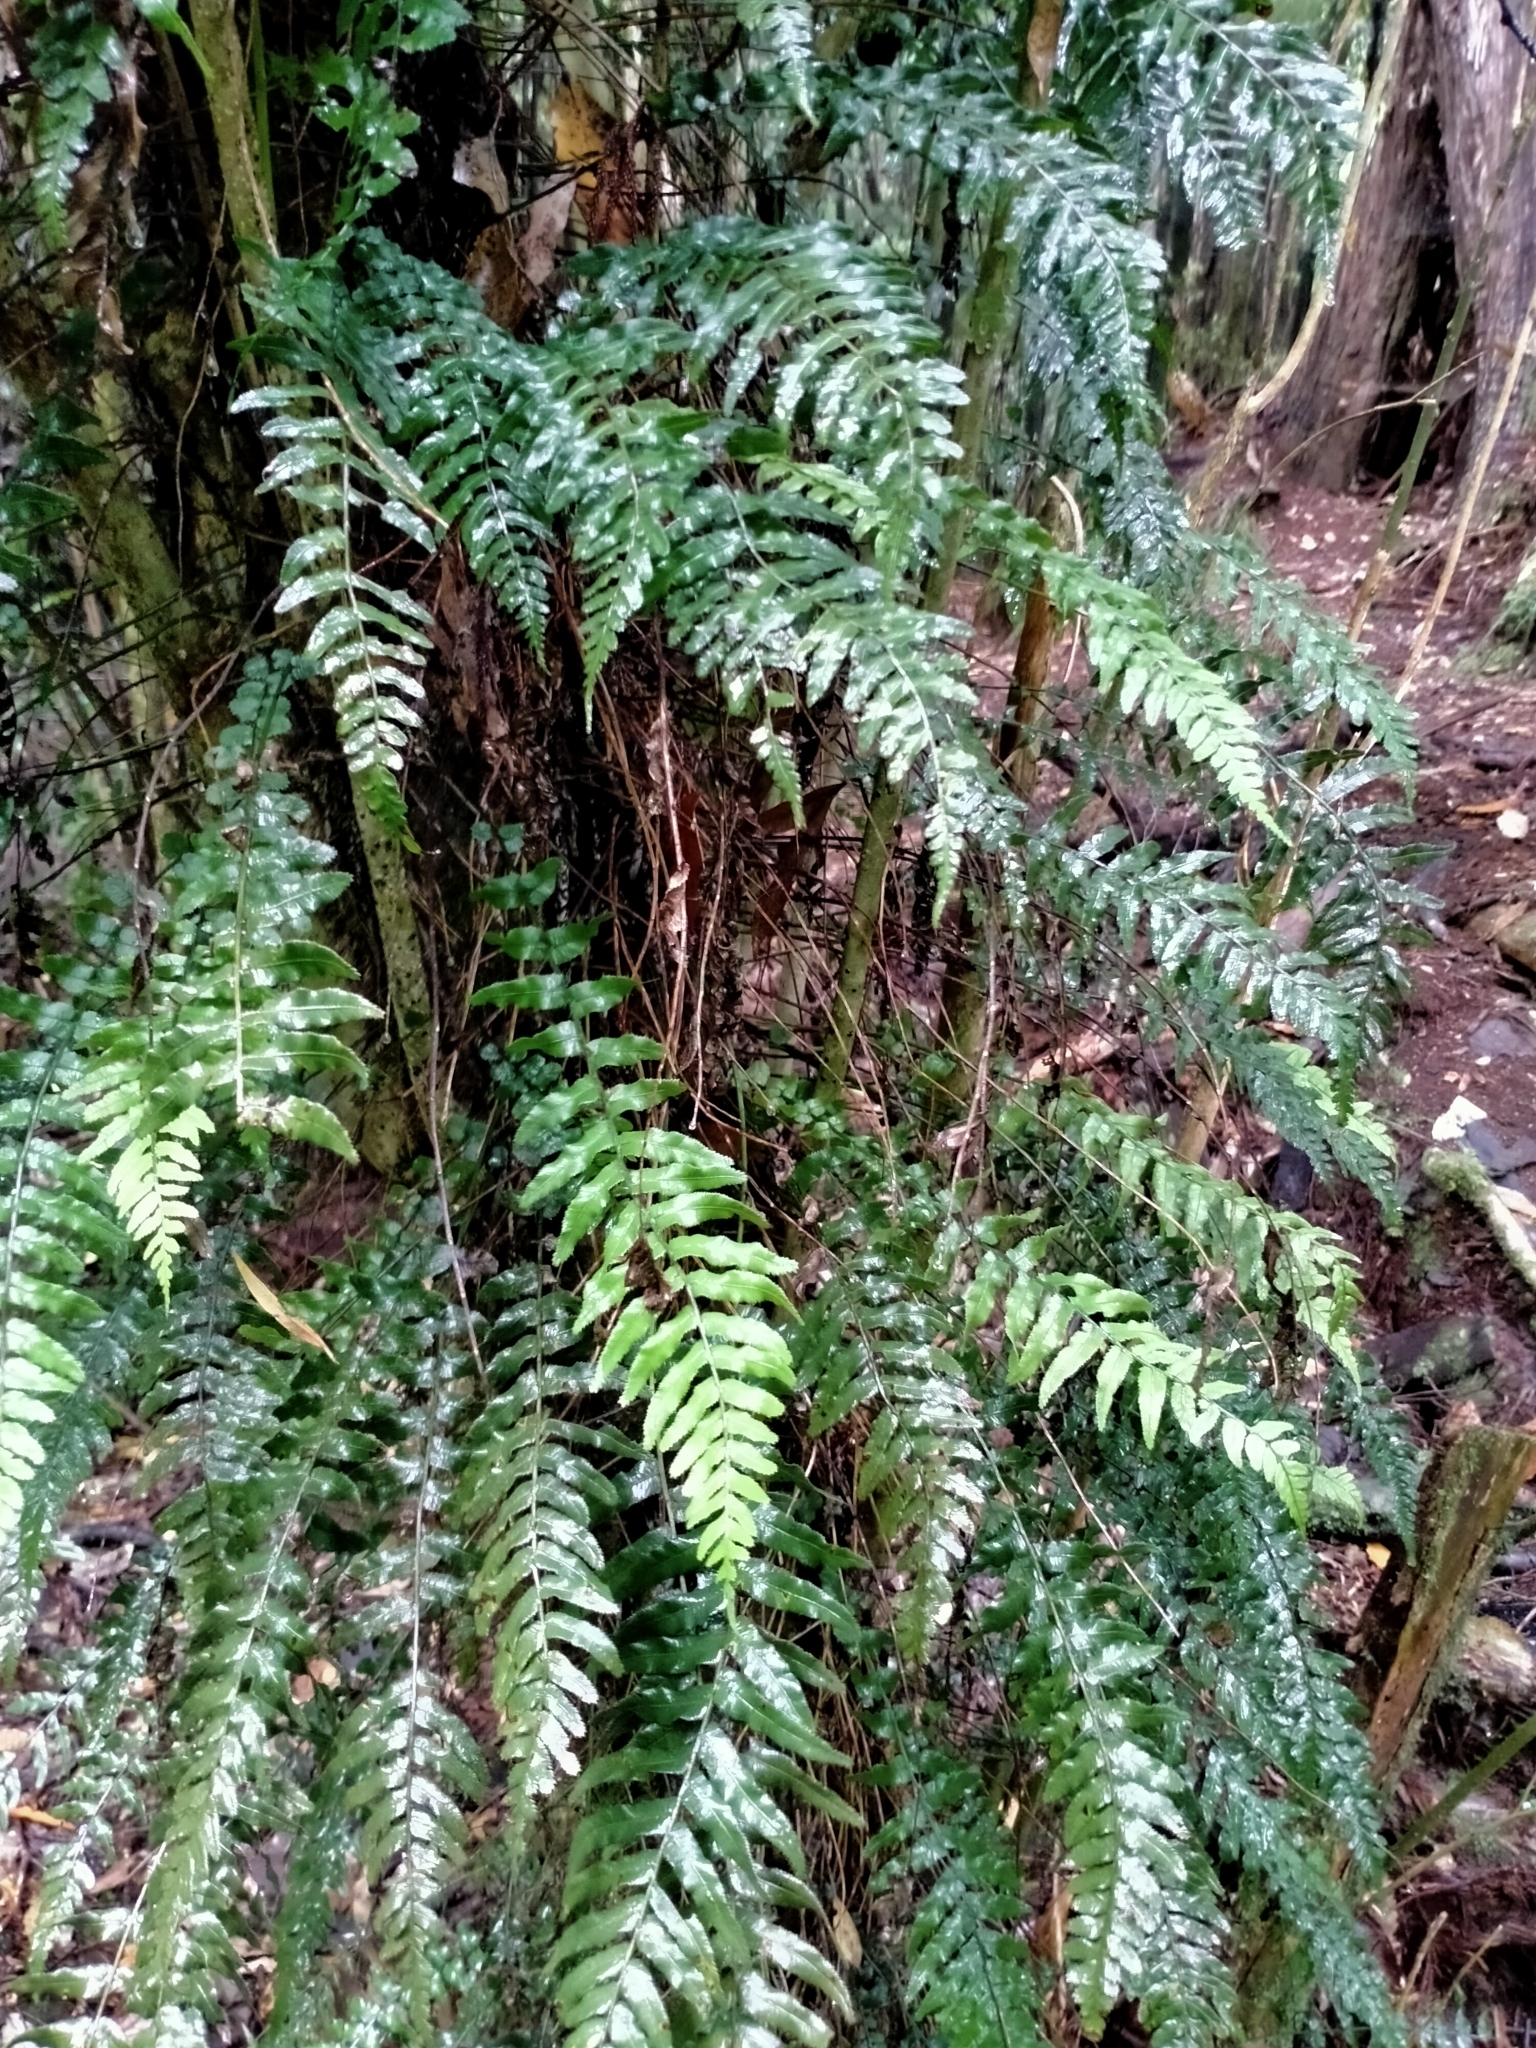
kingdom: Plantae
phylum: Tracheophyta
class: Polypodiopsida
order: Polypodiales
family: Blechnaceae
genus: Icarus
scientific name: Icarus filiformis
